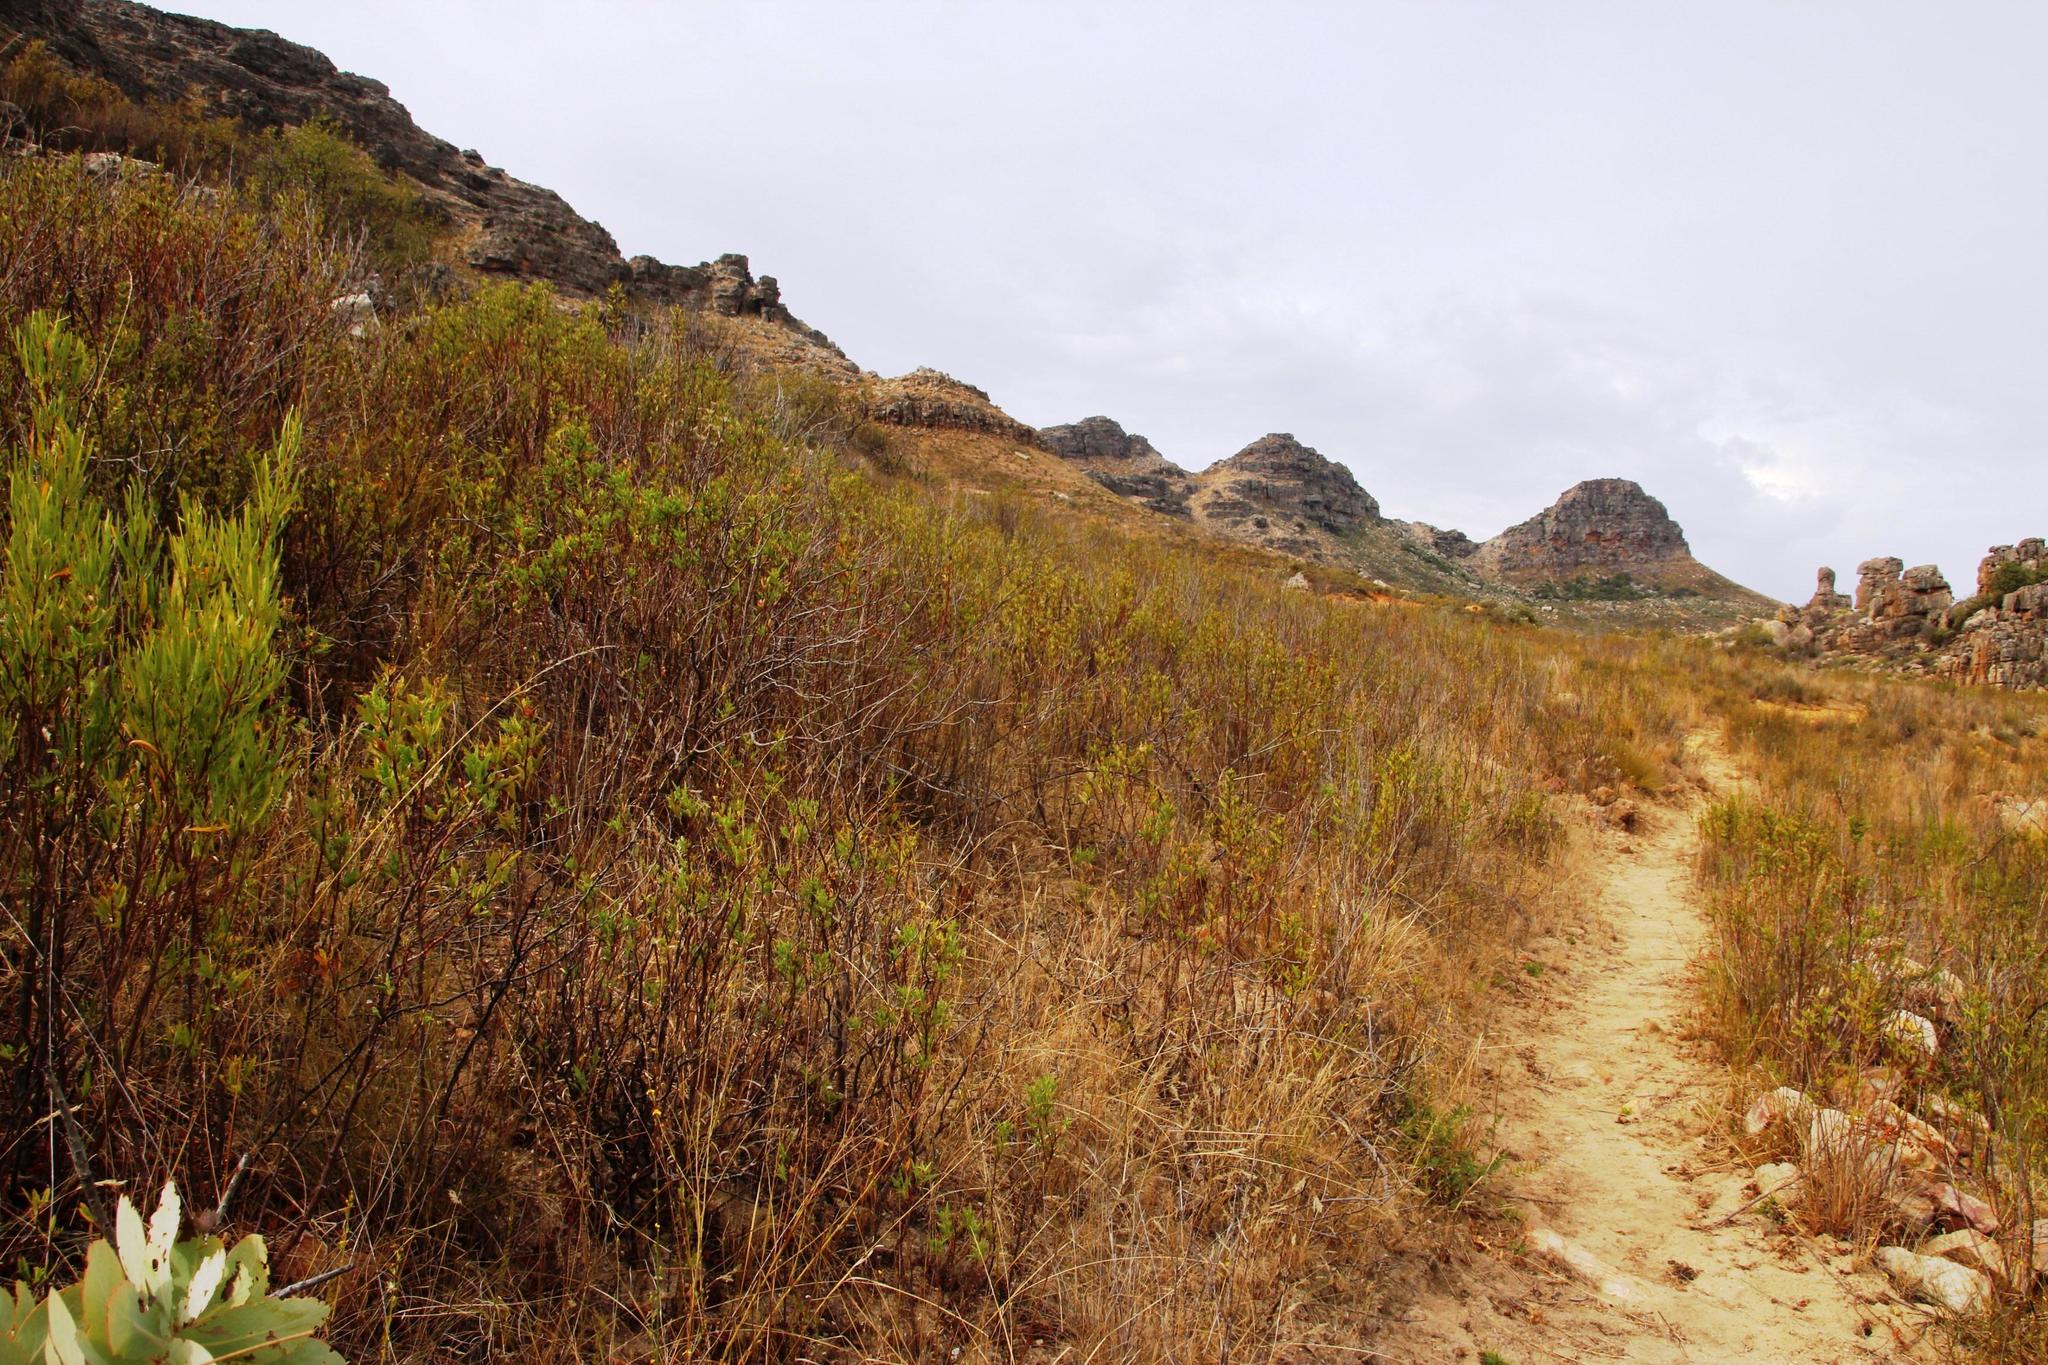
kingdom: Plantae
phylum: Tracheophyta
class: Magnoliopsida
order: Geraniales
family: Geraniaceae
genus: Pelargonium
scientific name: Pelargonium scabrum
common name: Apricot geranium
